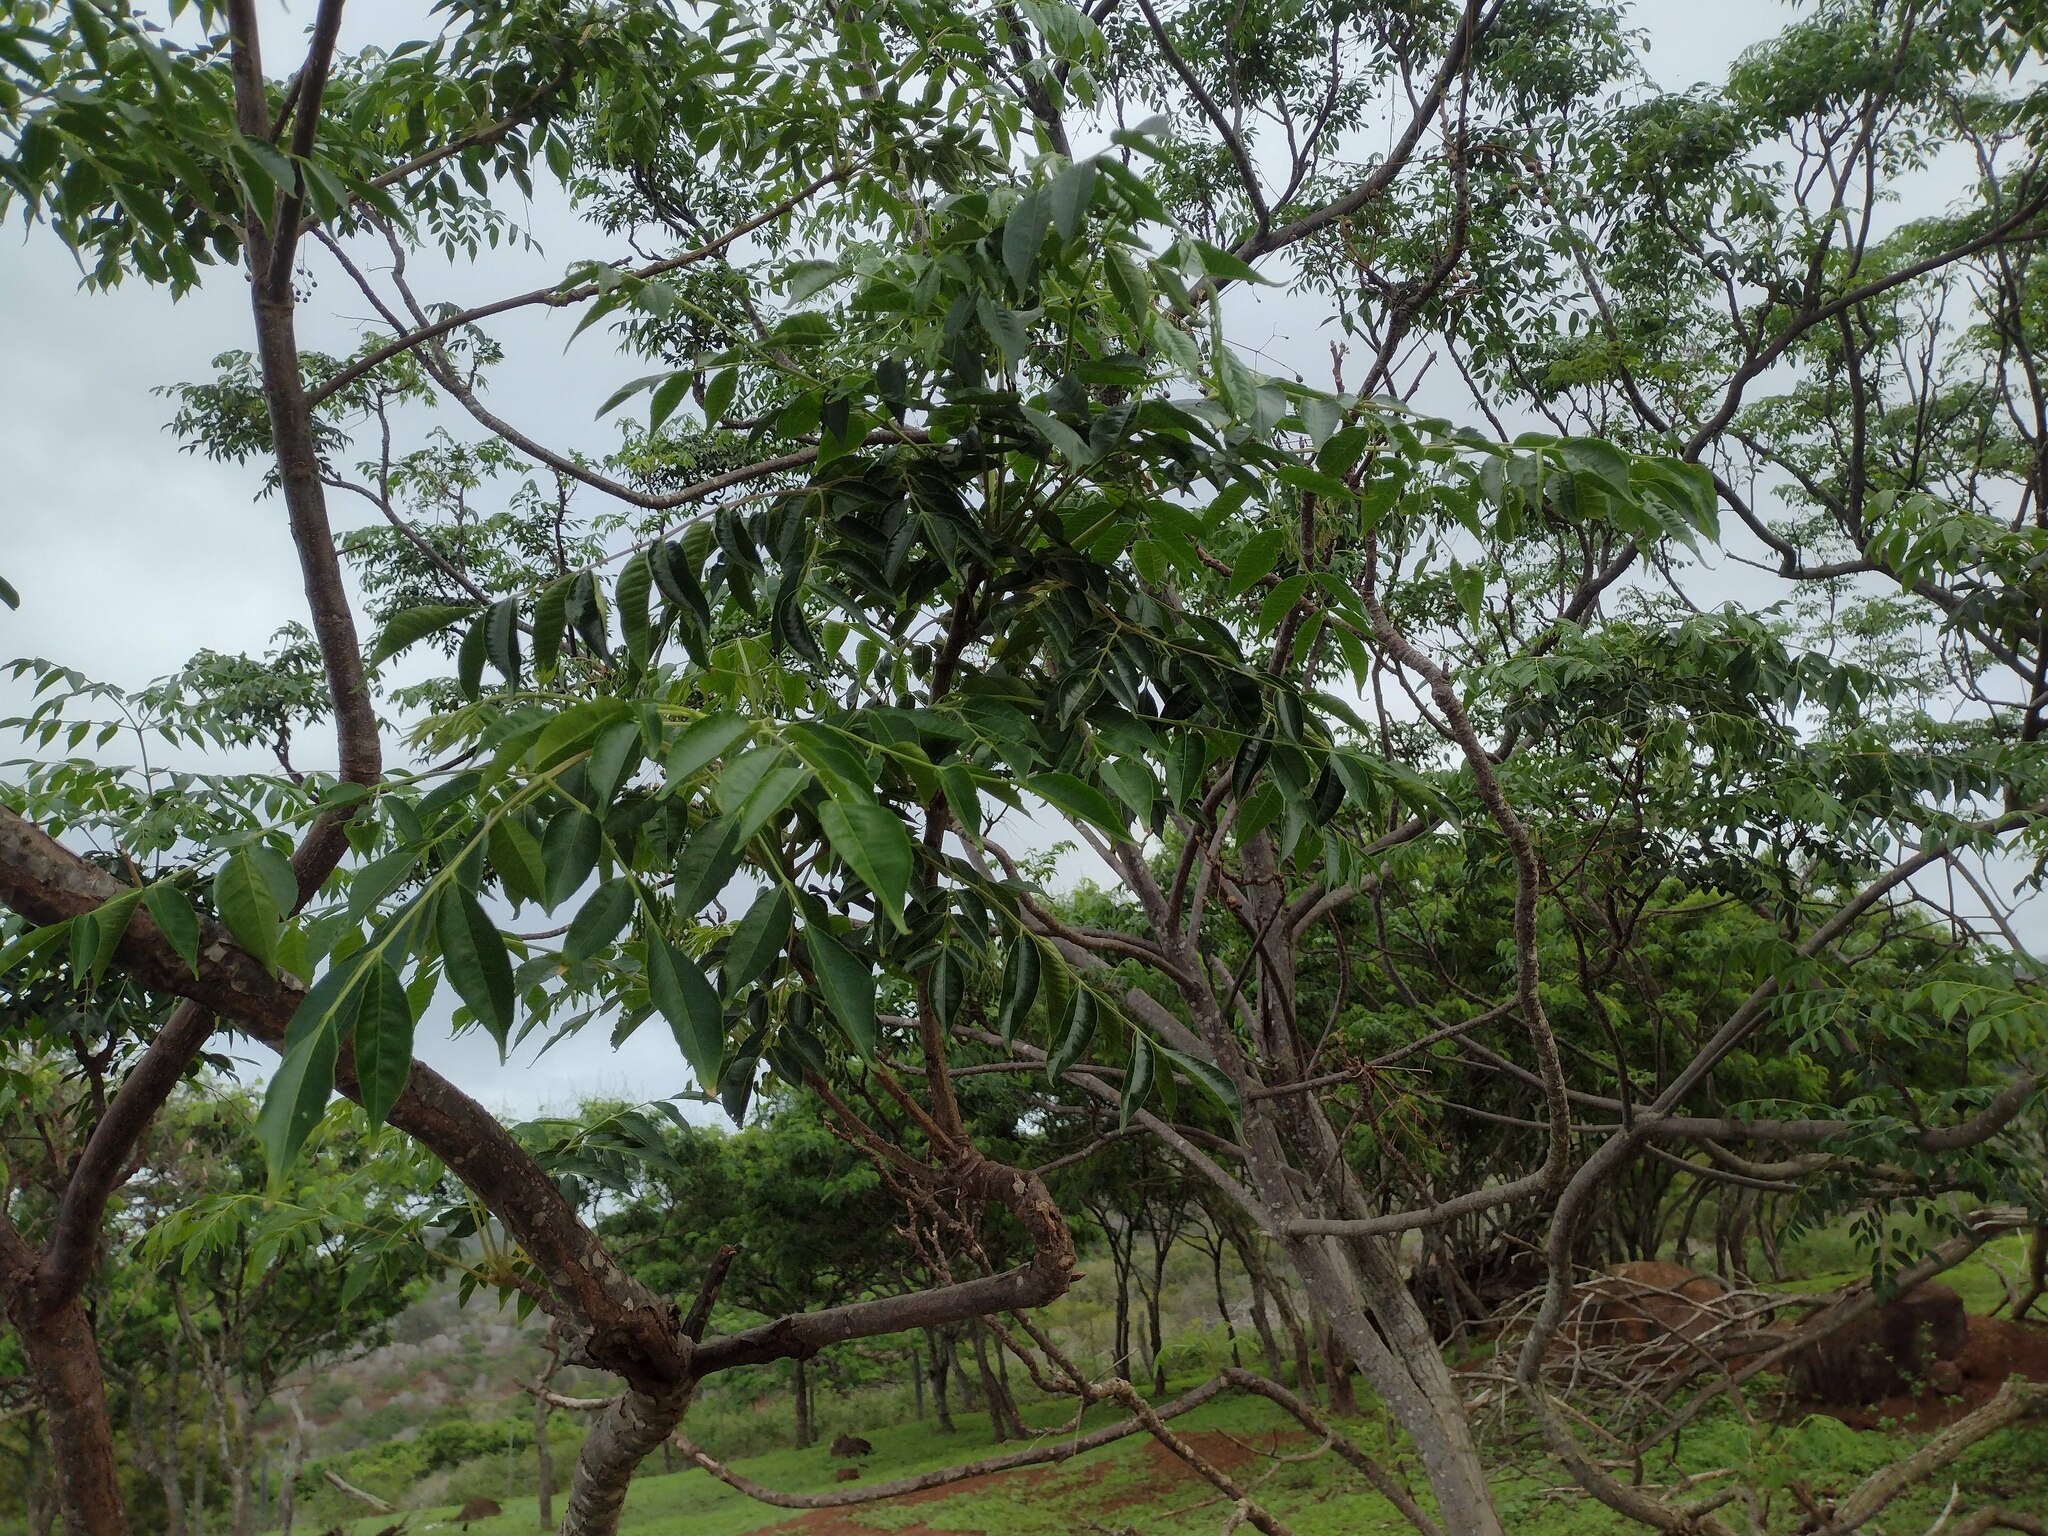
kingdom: Plantae
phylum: Tracheophyta
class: Magnoliopsida
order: Sapindales
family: Meliaceae
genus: Melia
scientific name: Melia azedarach
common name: Chinaberrytree
